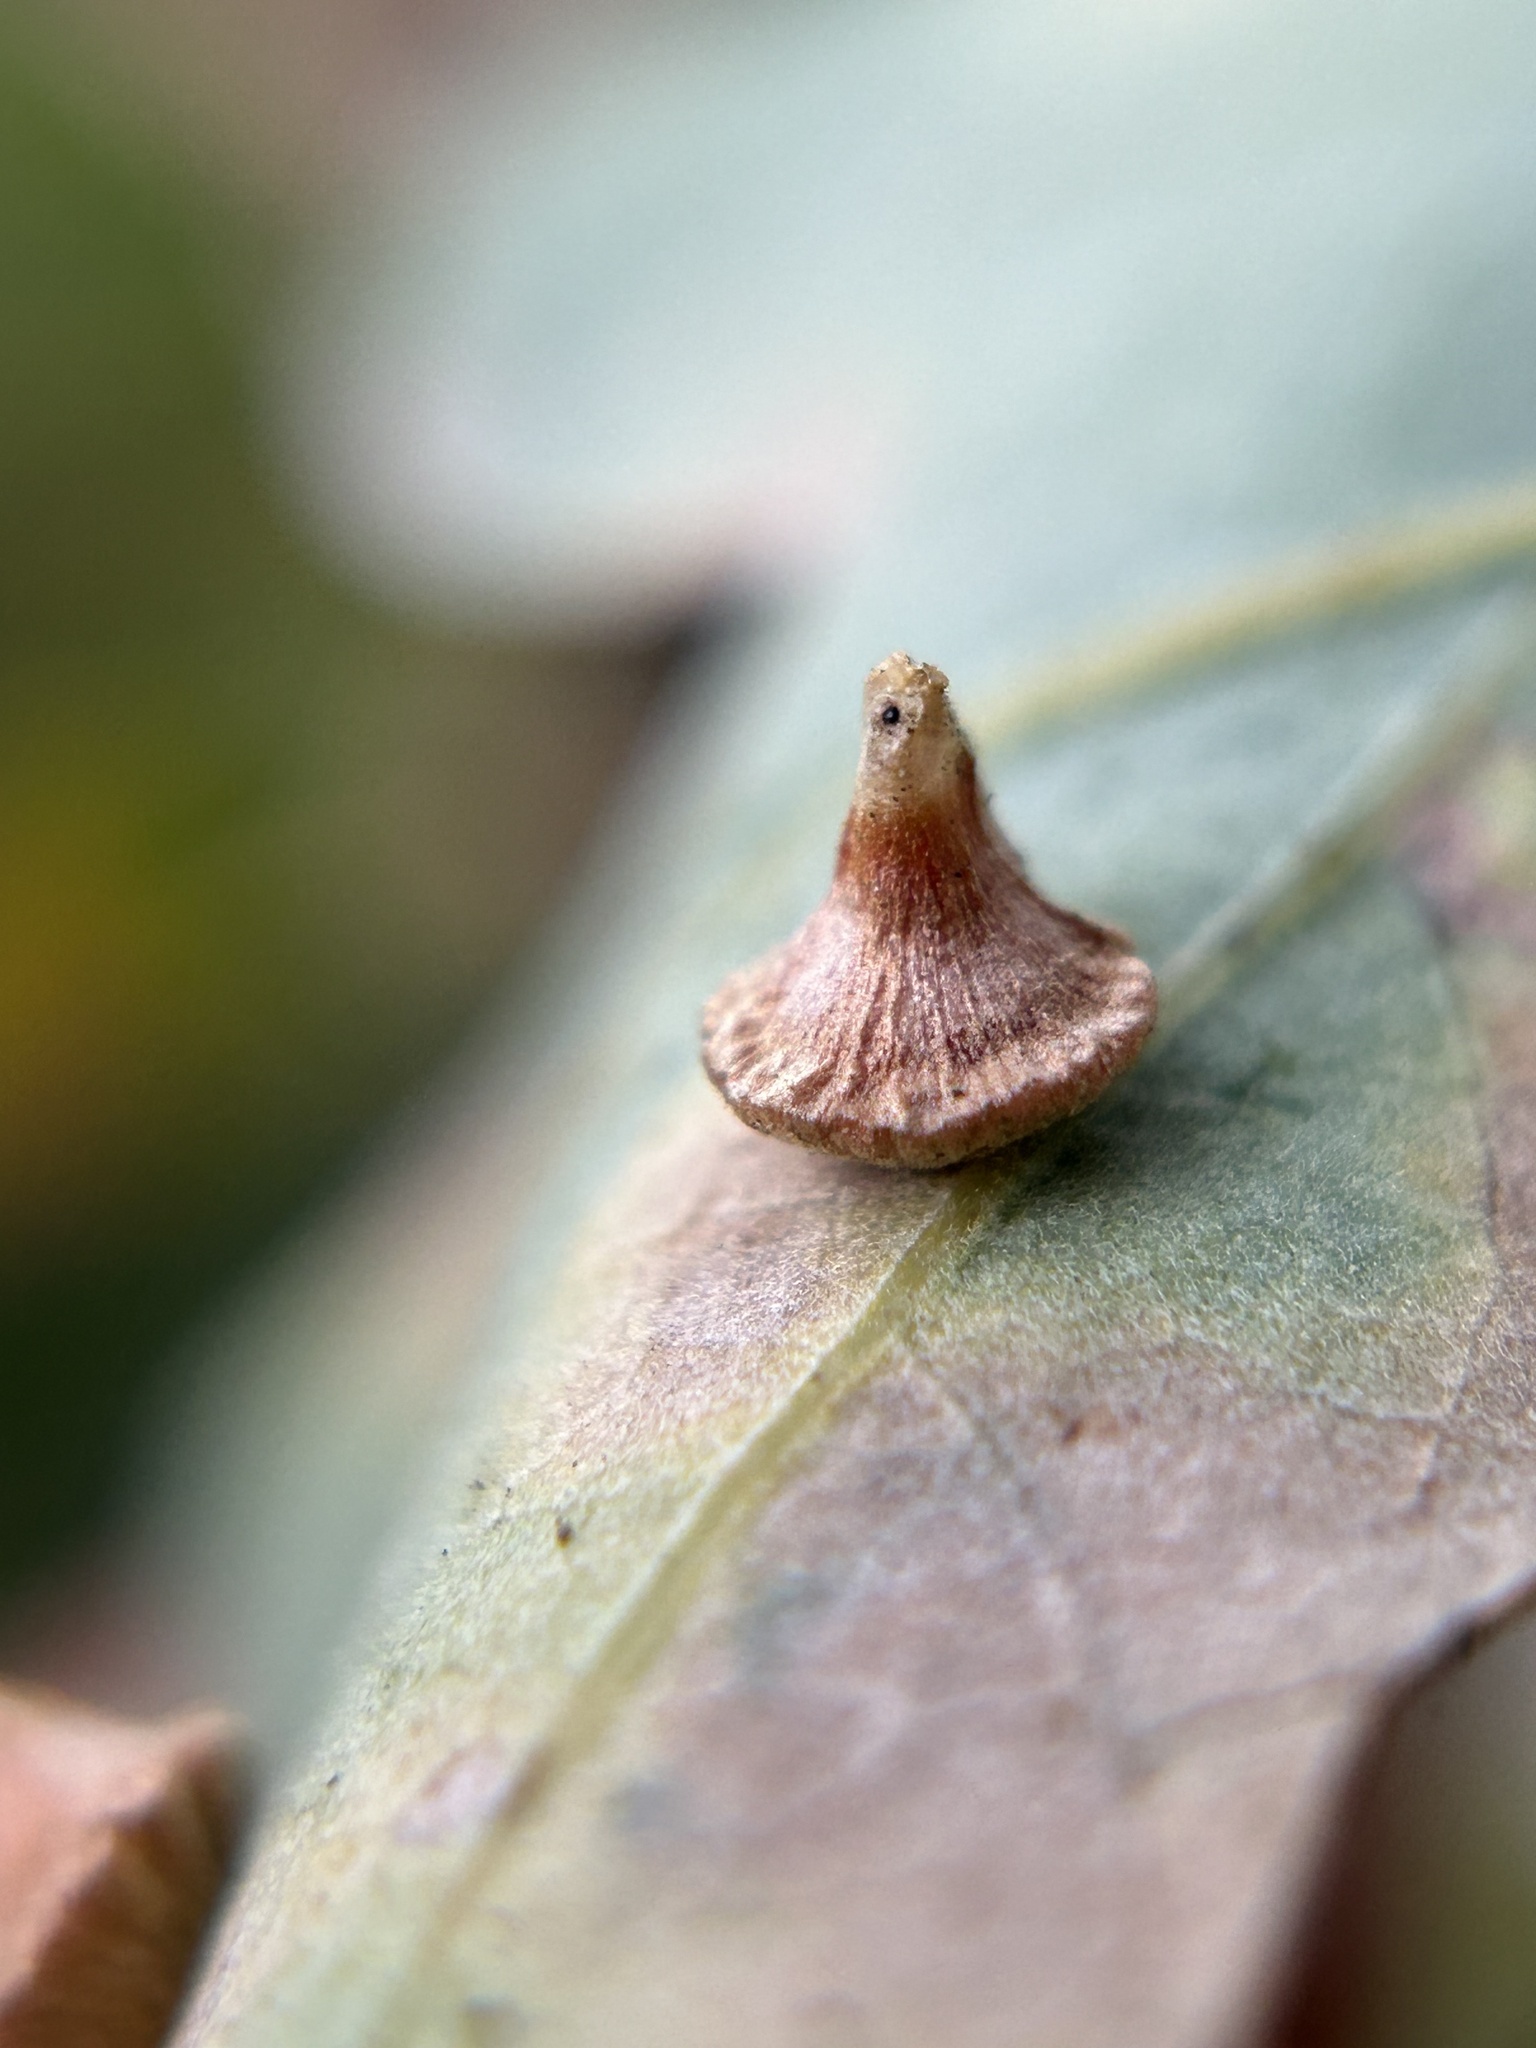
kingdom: Animalia
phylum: Arthropoda
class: Insecta
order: Hymenoptera
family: Cynipidae
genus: Andricus
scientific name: Andricus
